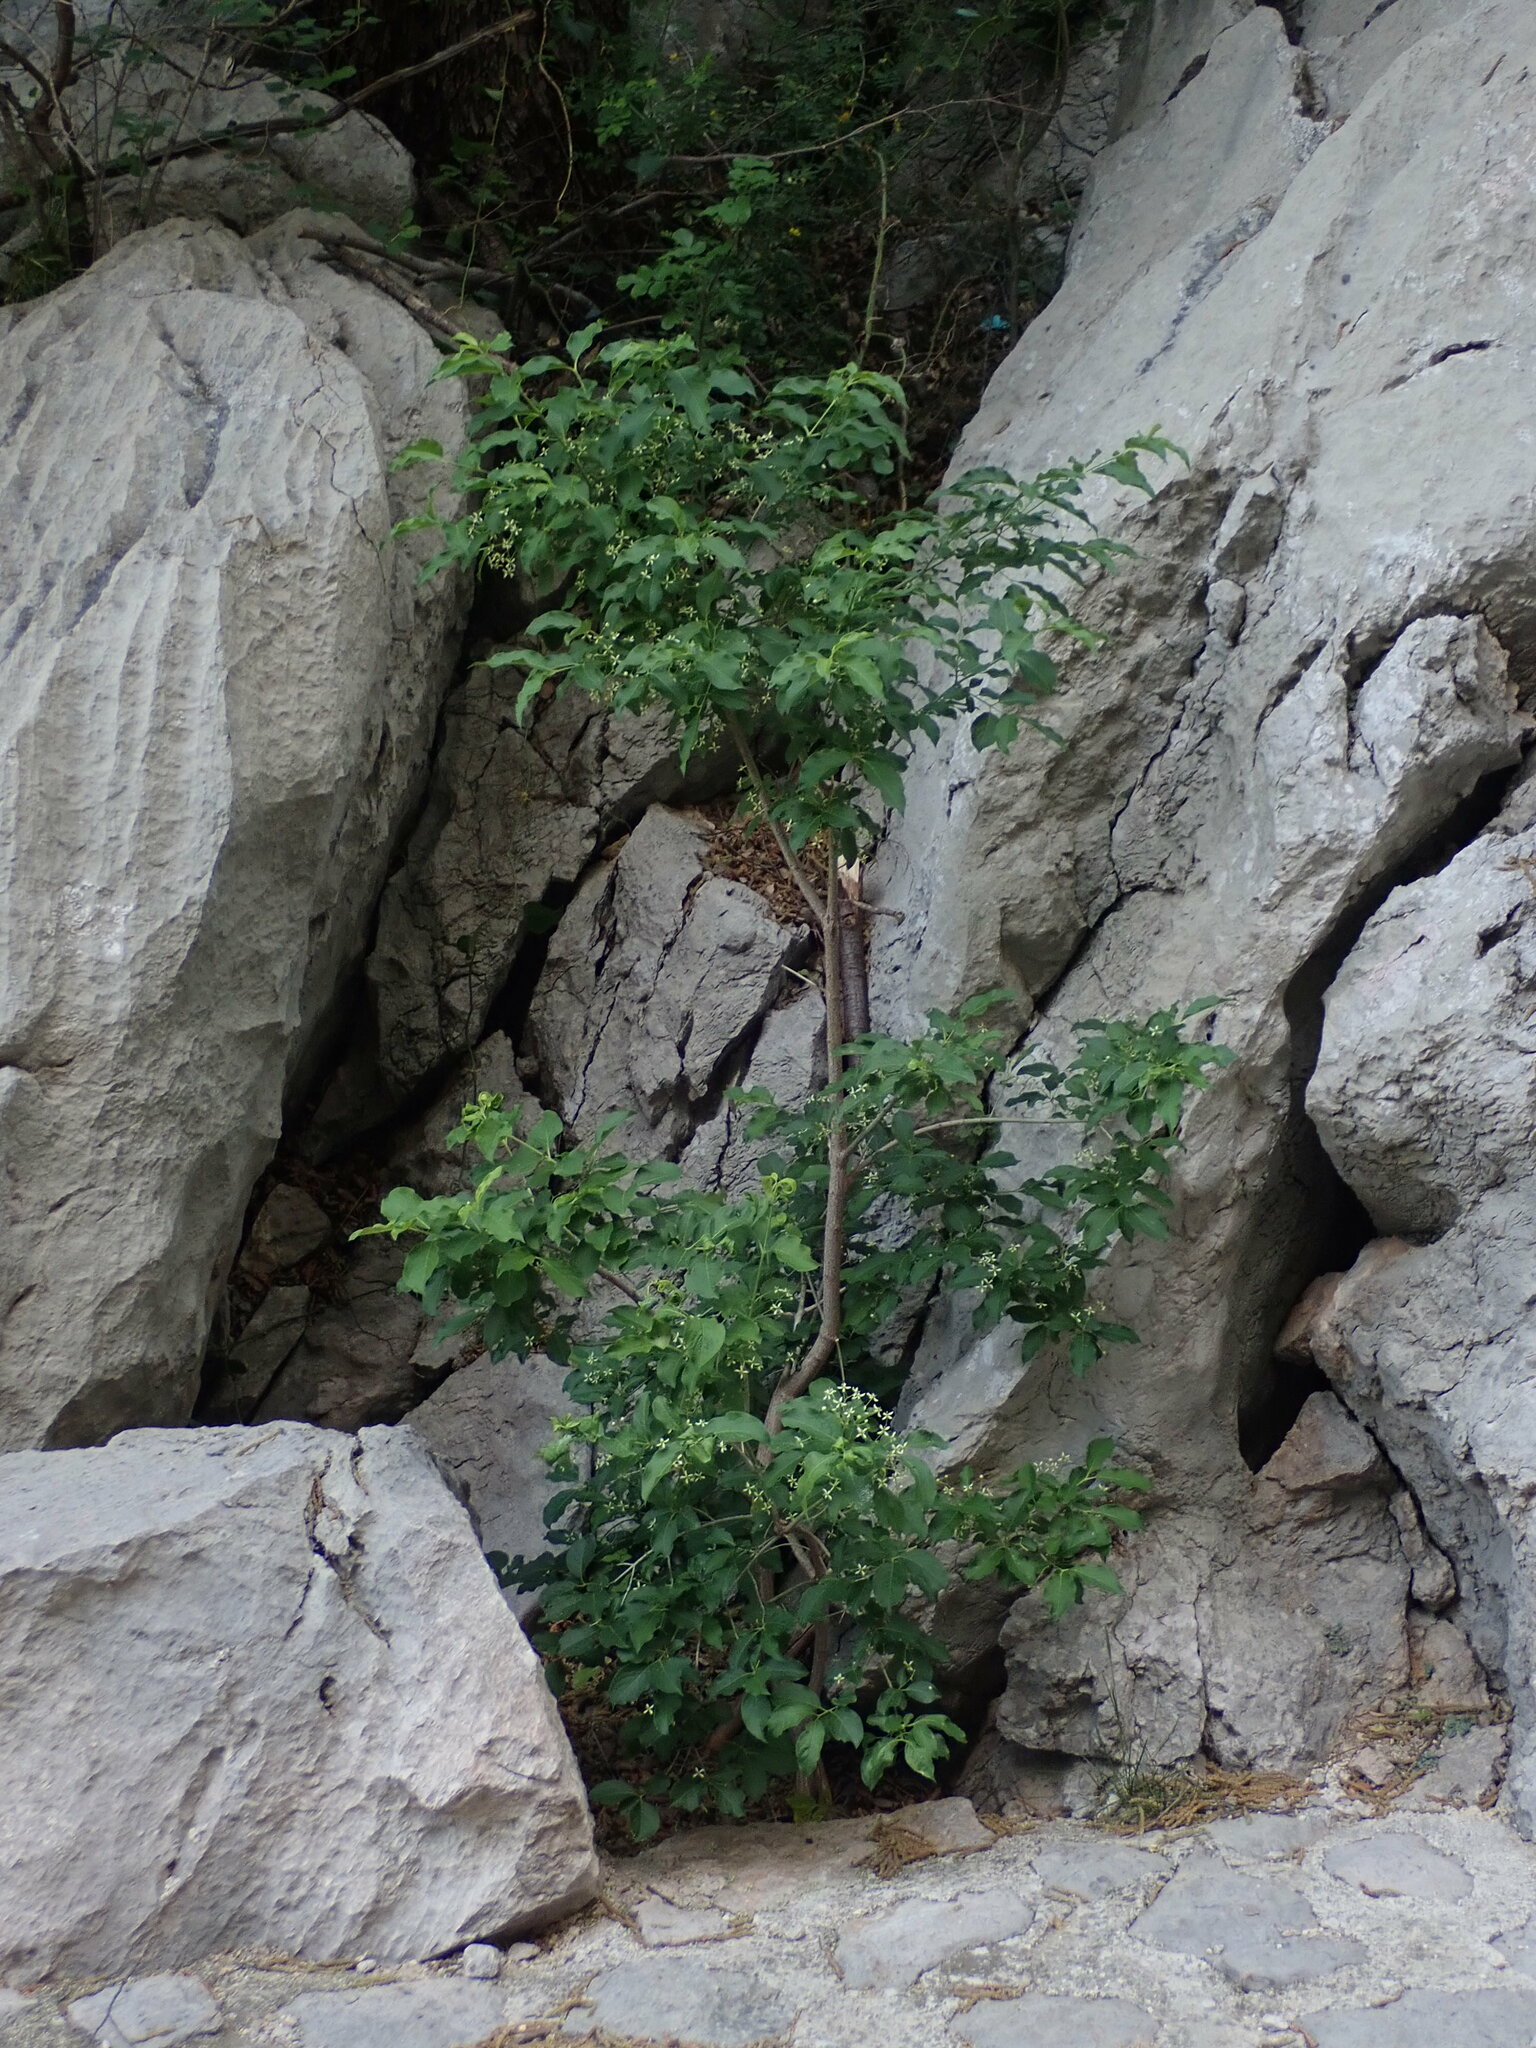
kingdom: Plantae
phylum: Tracheophyta
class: Magnoliopsida
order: Celastrales
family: Celastraceae
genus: Euonymus
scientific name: Euonymus europaeus
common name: Spindle
